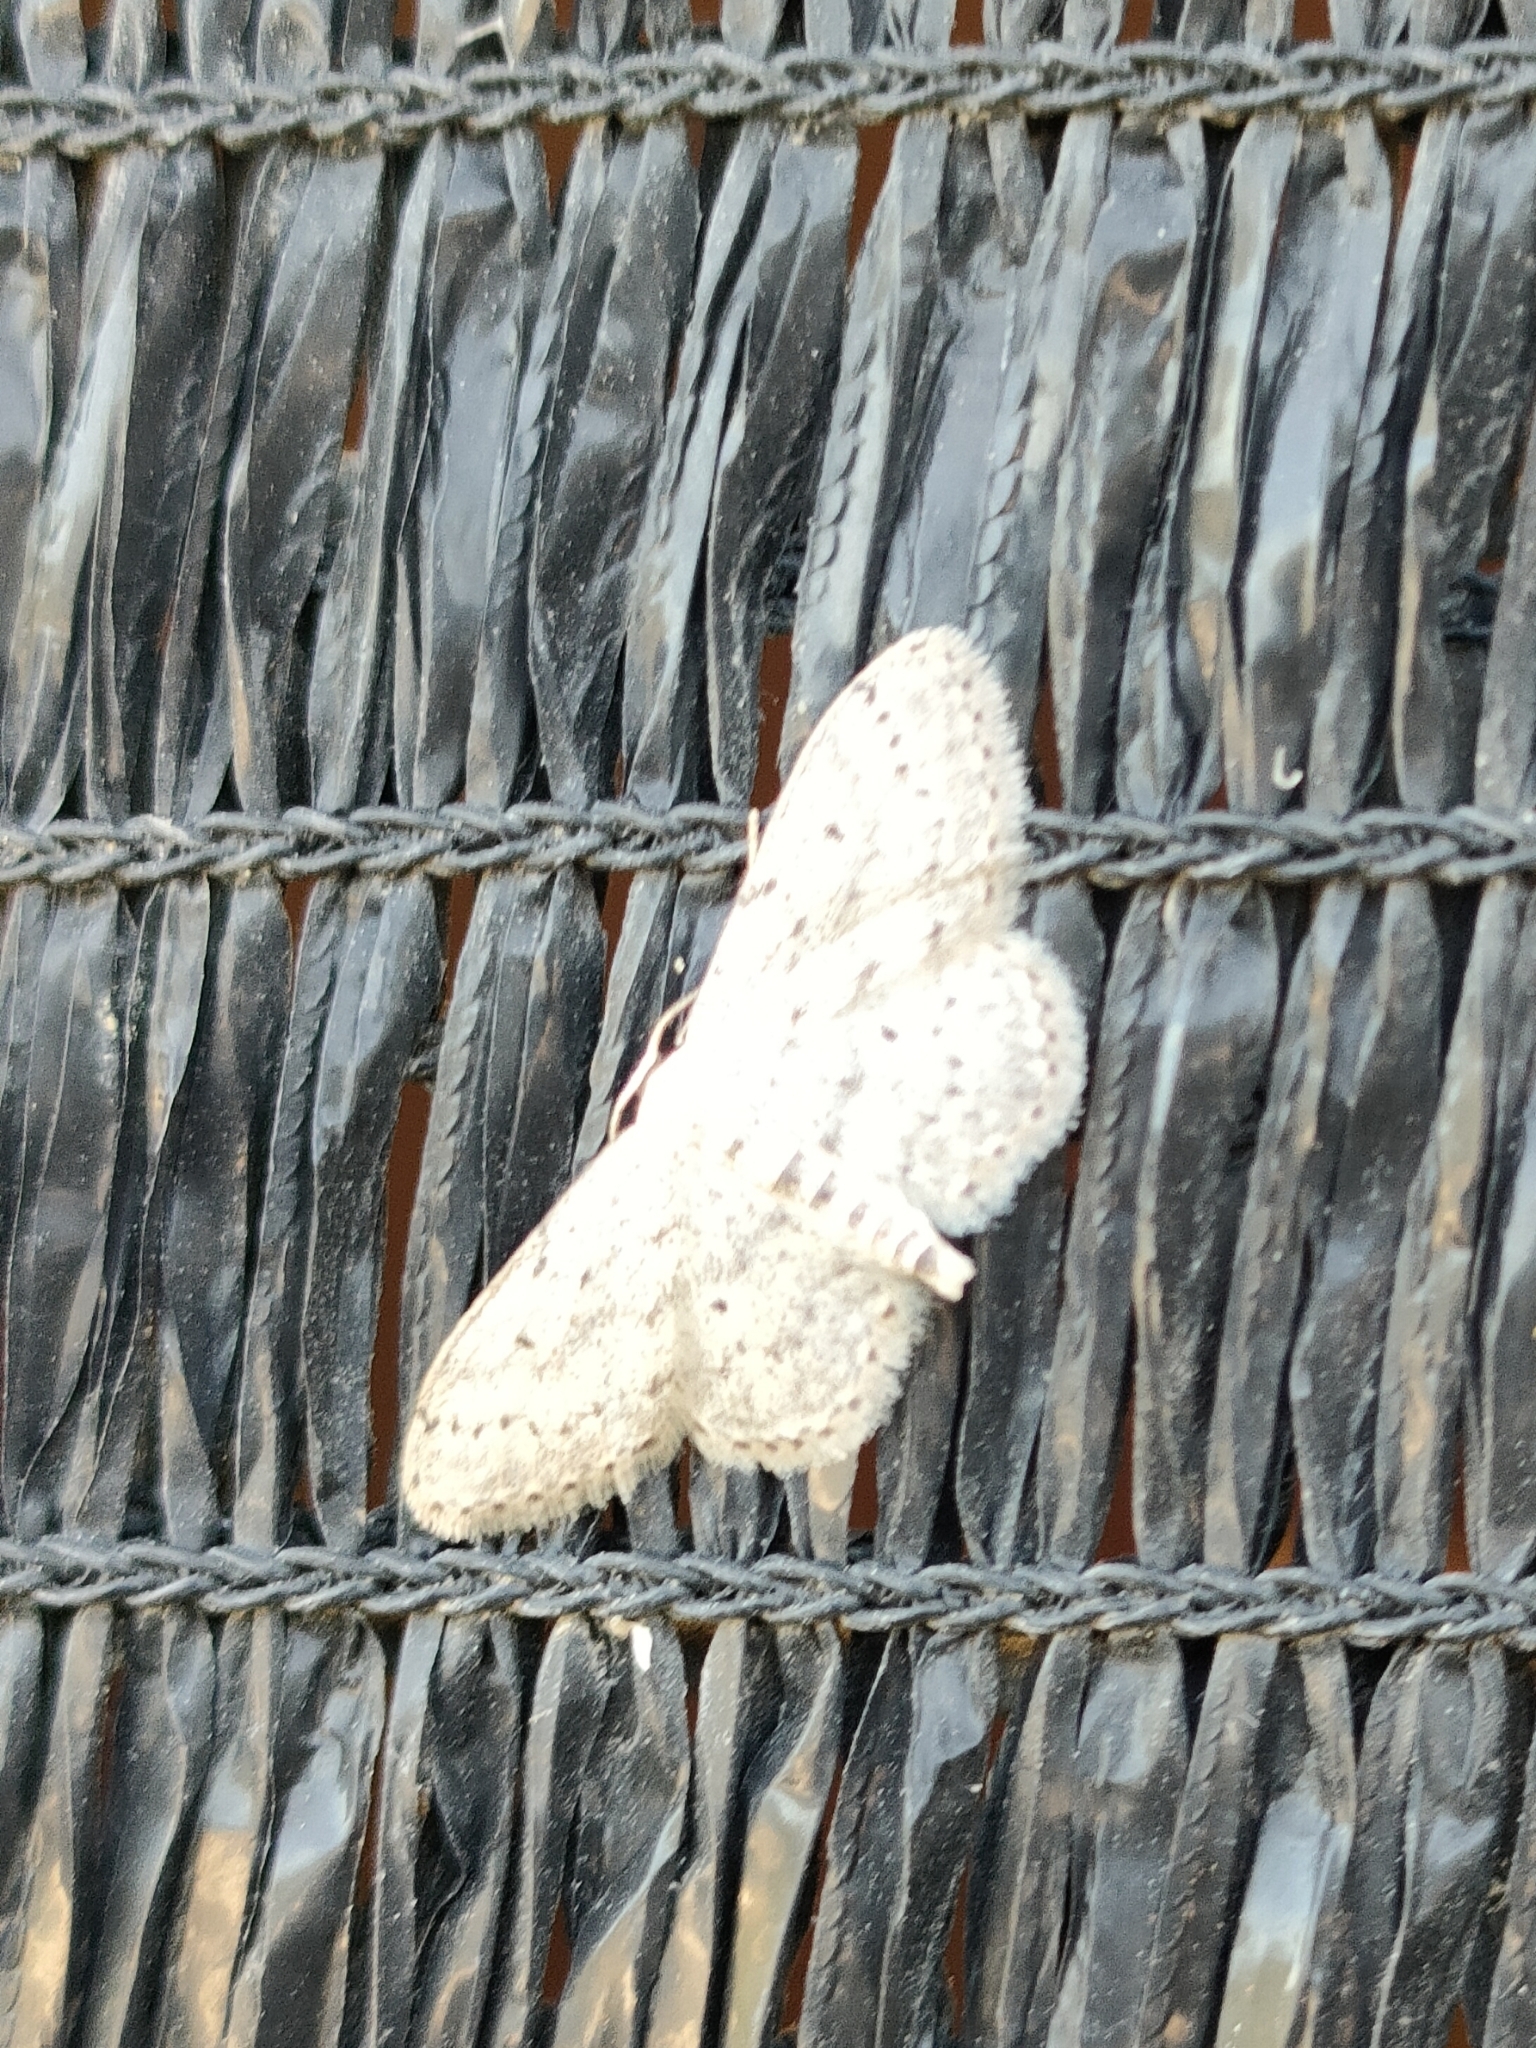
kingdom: Animalia
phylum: Arthropoda
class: Insecta
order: Lepidoptera
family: Geometridae
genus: Idaea
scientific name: Idaea seriata
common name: Small dusty wave
